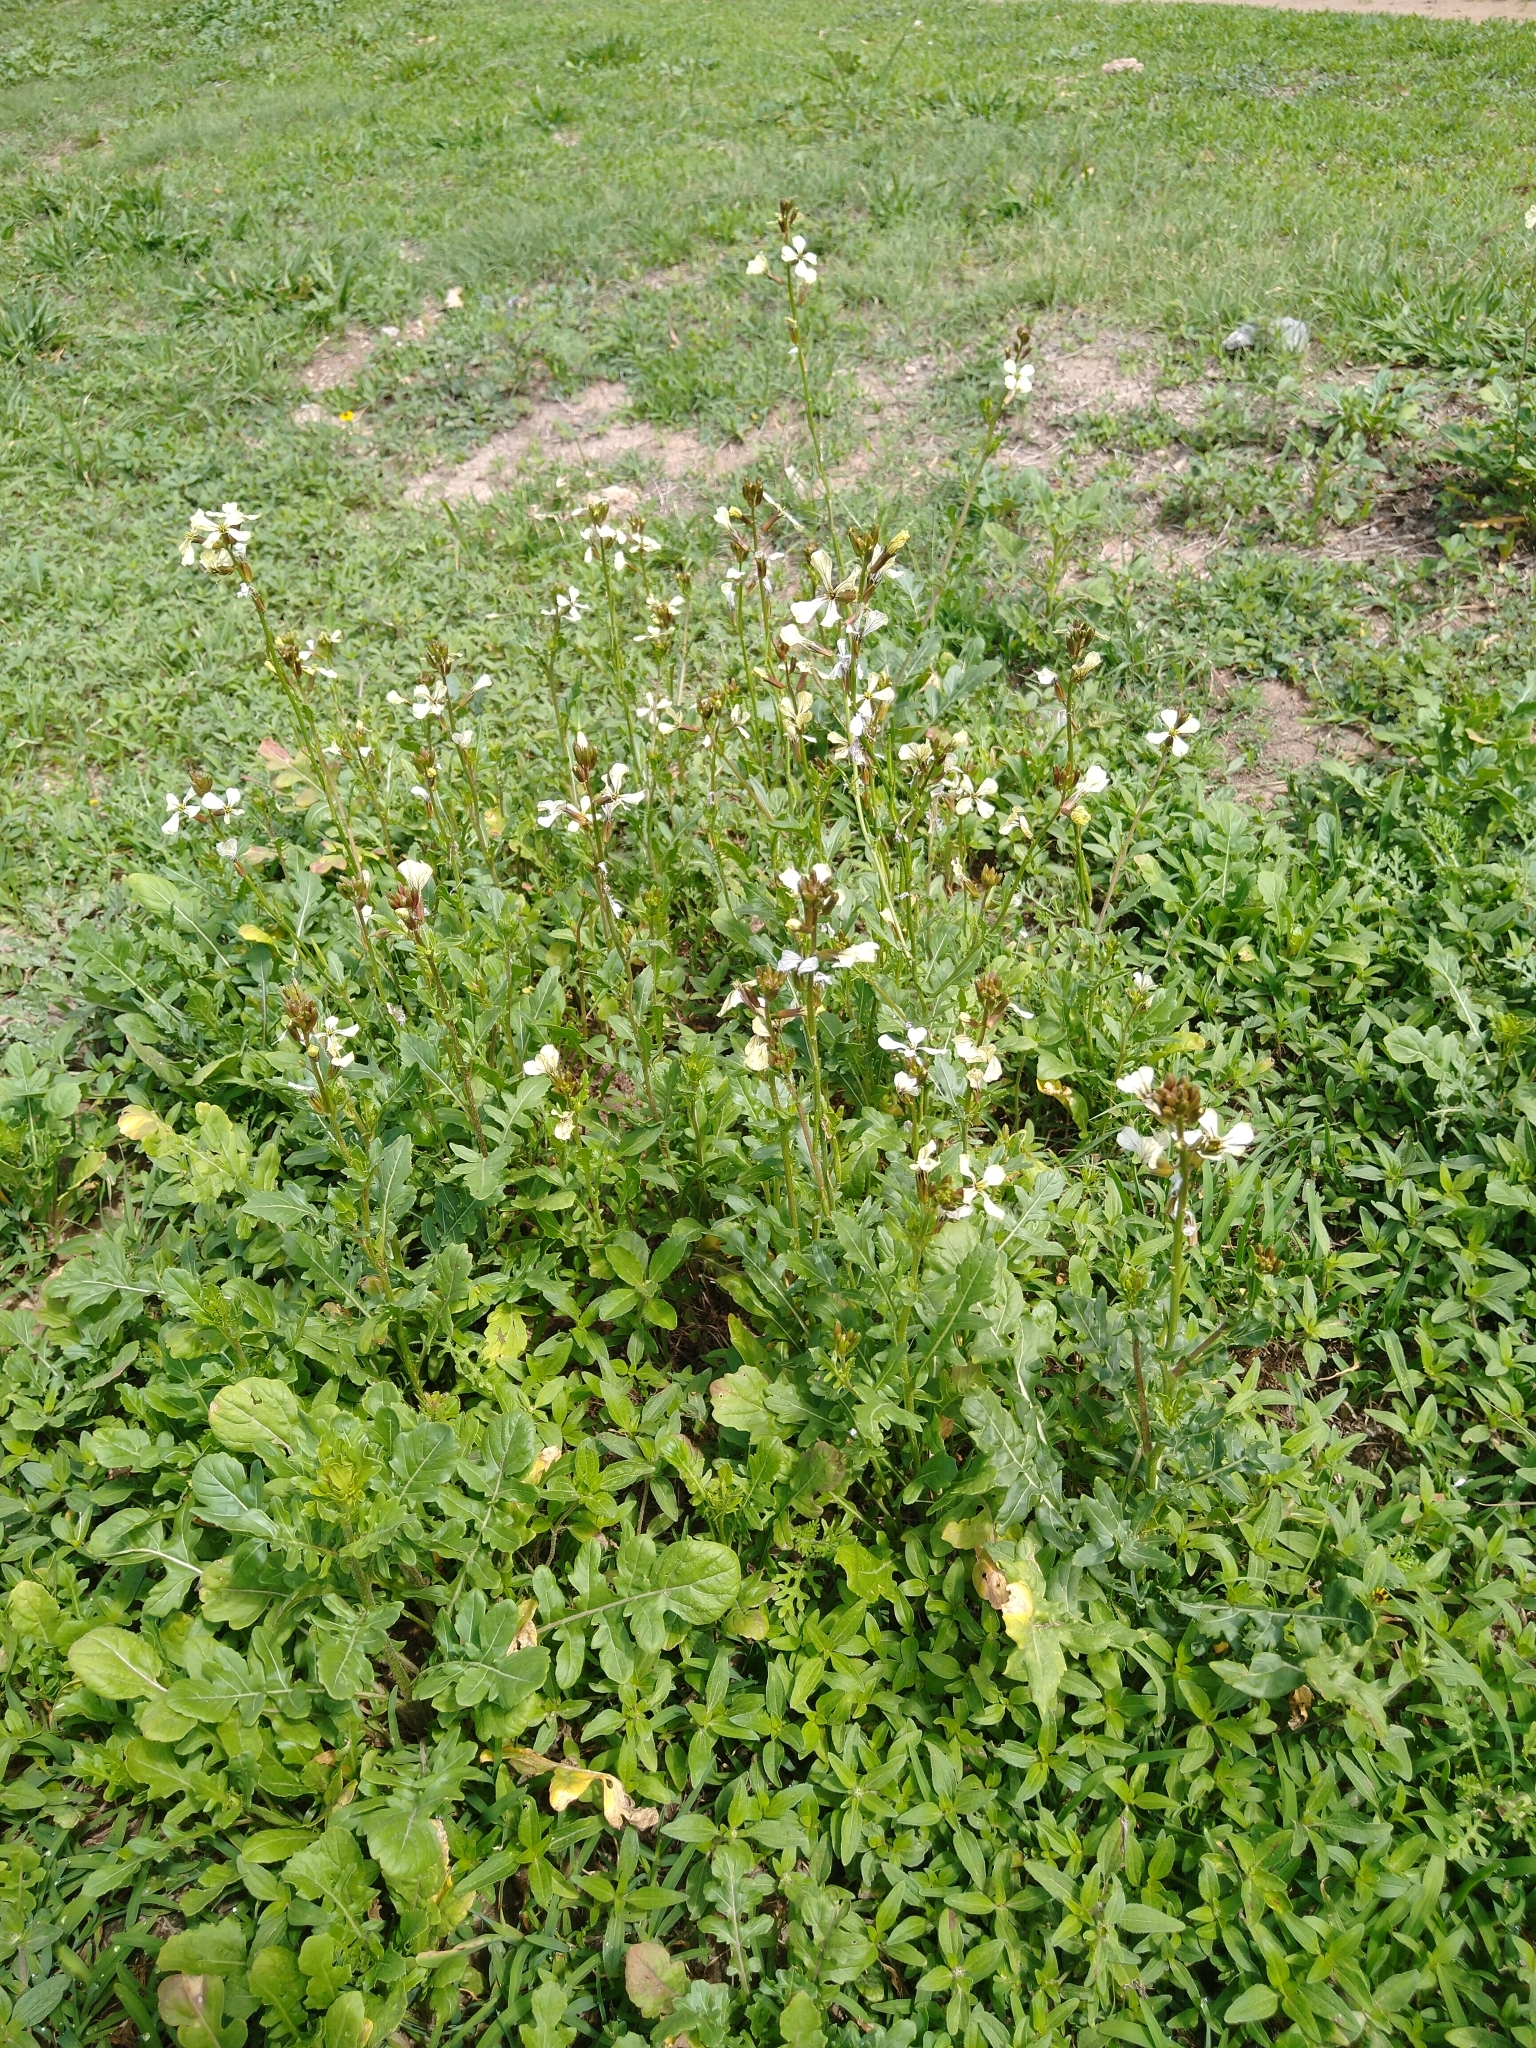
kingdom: Plantae
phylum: Tracheophyta
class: Magnoliopsida
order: Brassicales
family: Brassicaceae
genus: Eruca
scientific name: Eruca vesicaria
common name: Garden rocket
